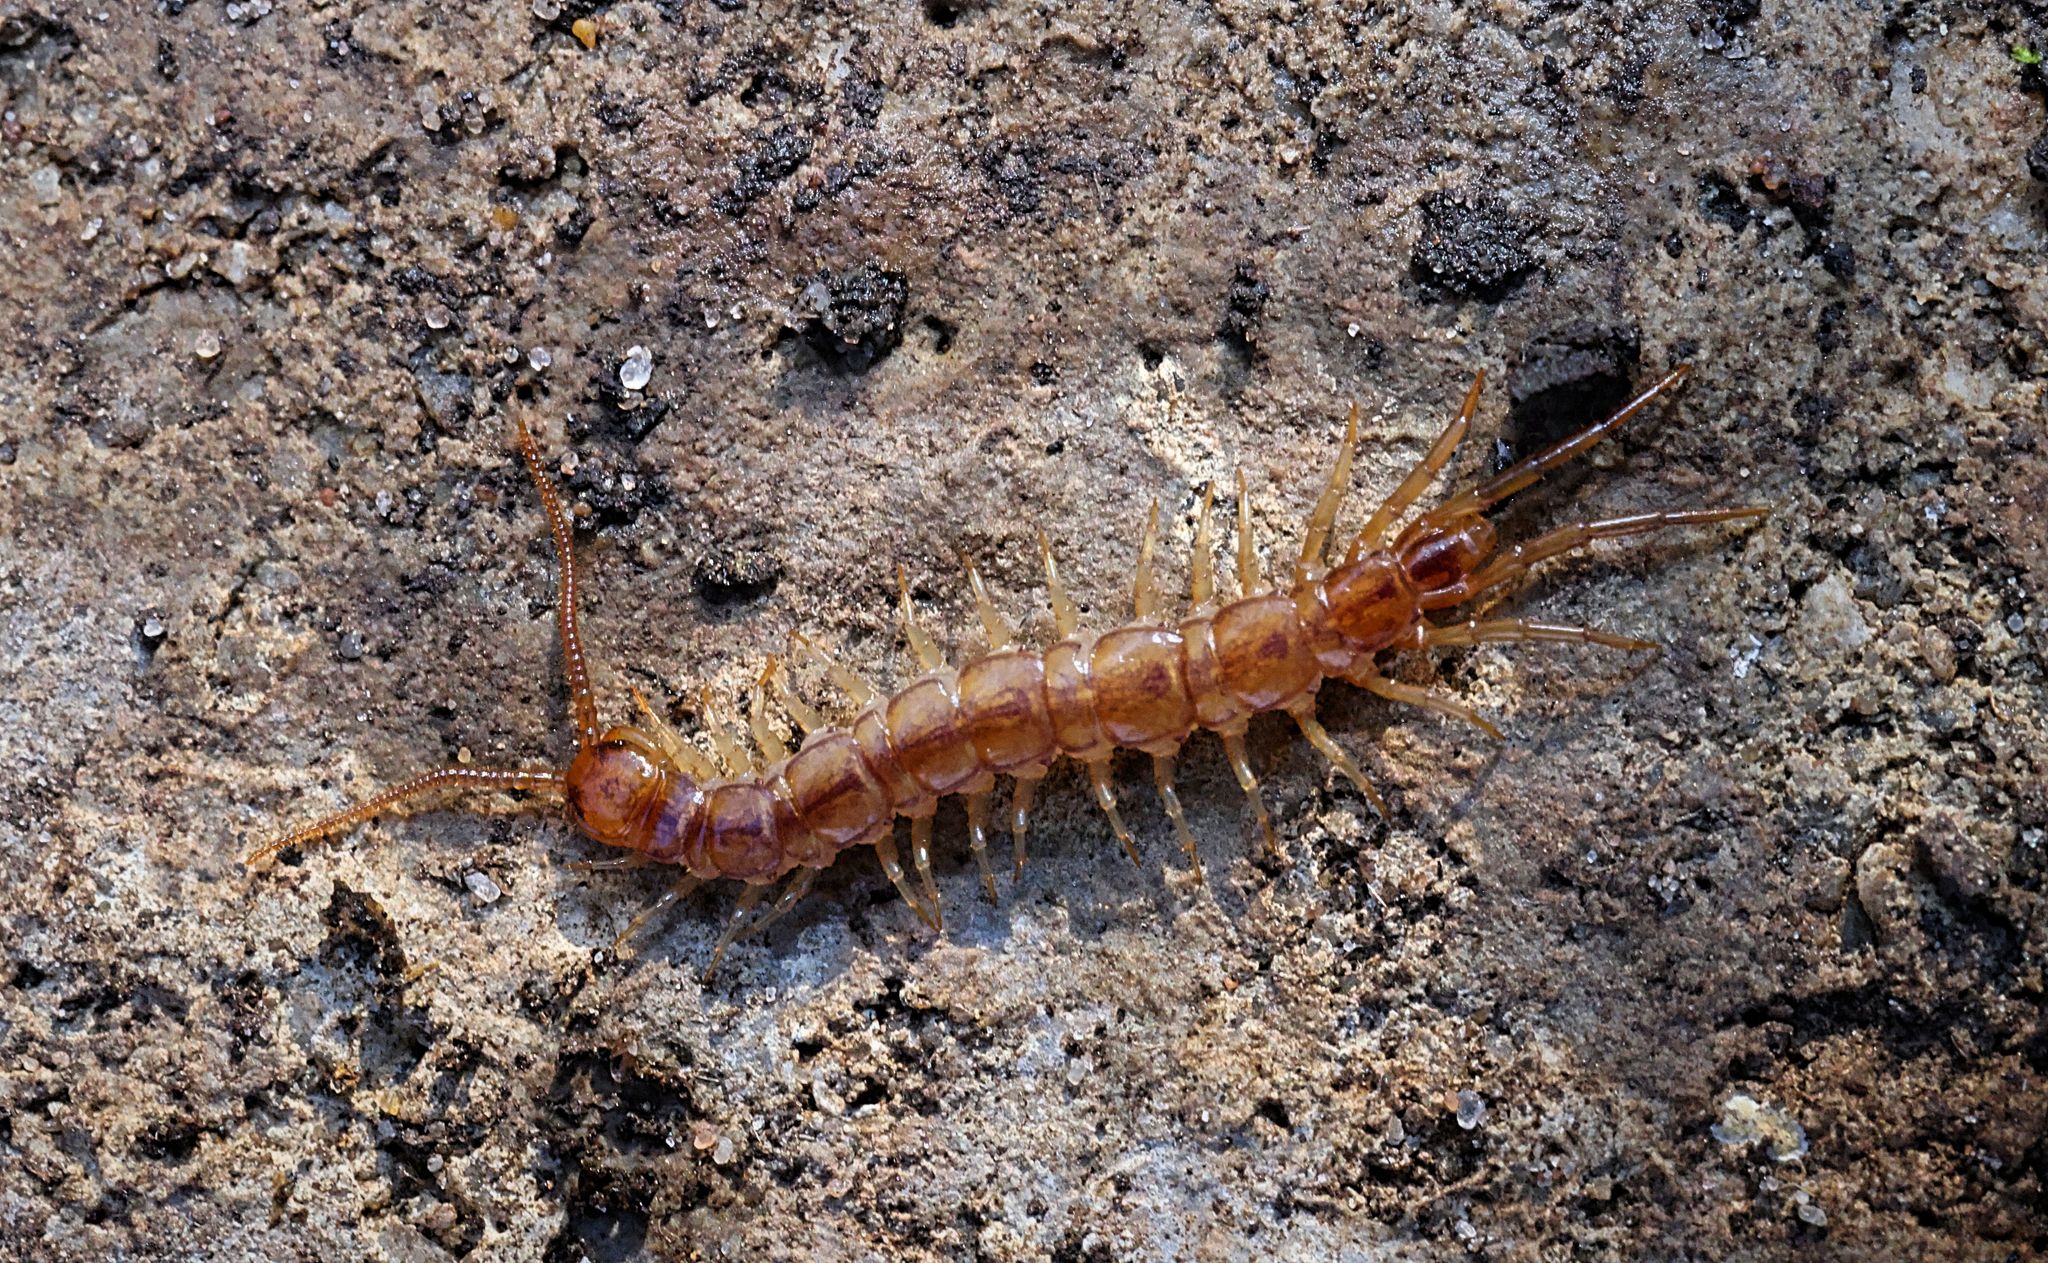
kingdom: Animalia
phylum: Arthropoda
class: Chilopoda
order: Lithobiomorpha
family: Lithobiidae
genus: Lithobius
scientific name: Lithobius melanops
